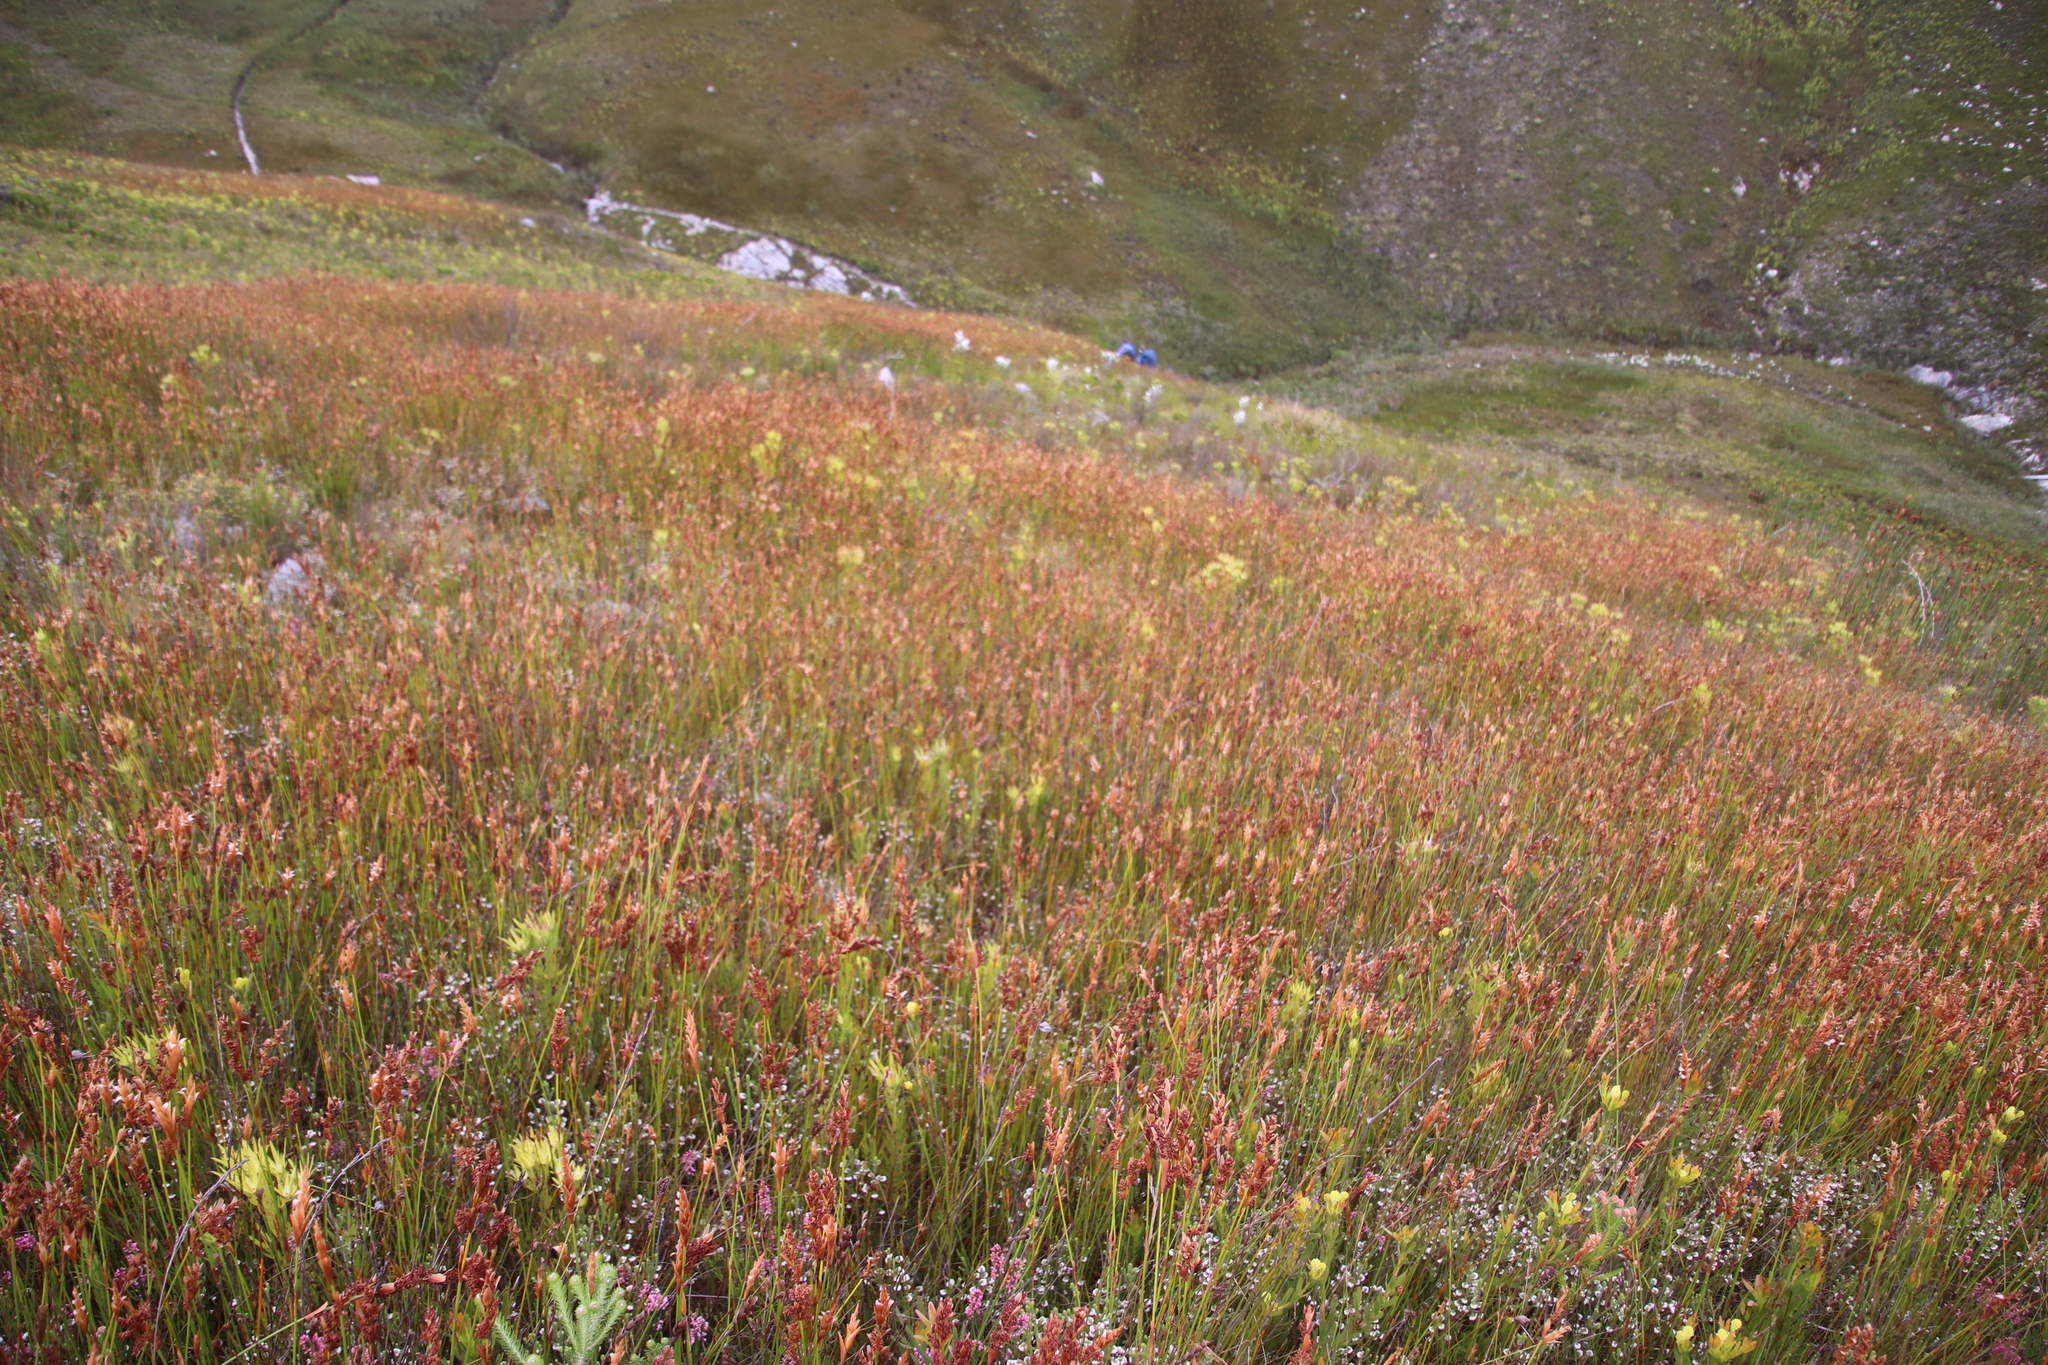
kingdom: Plantae
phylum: Tracheophyta
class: Liliopsida
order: Poales
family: Restionaceae
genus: Elegia
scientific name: Elegia filacea
